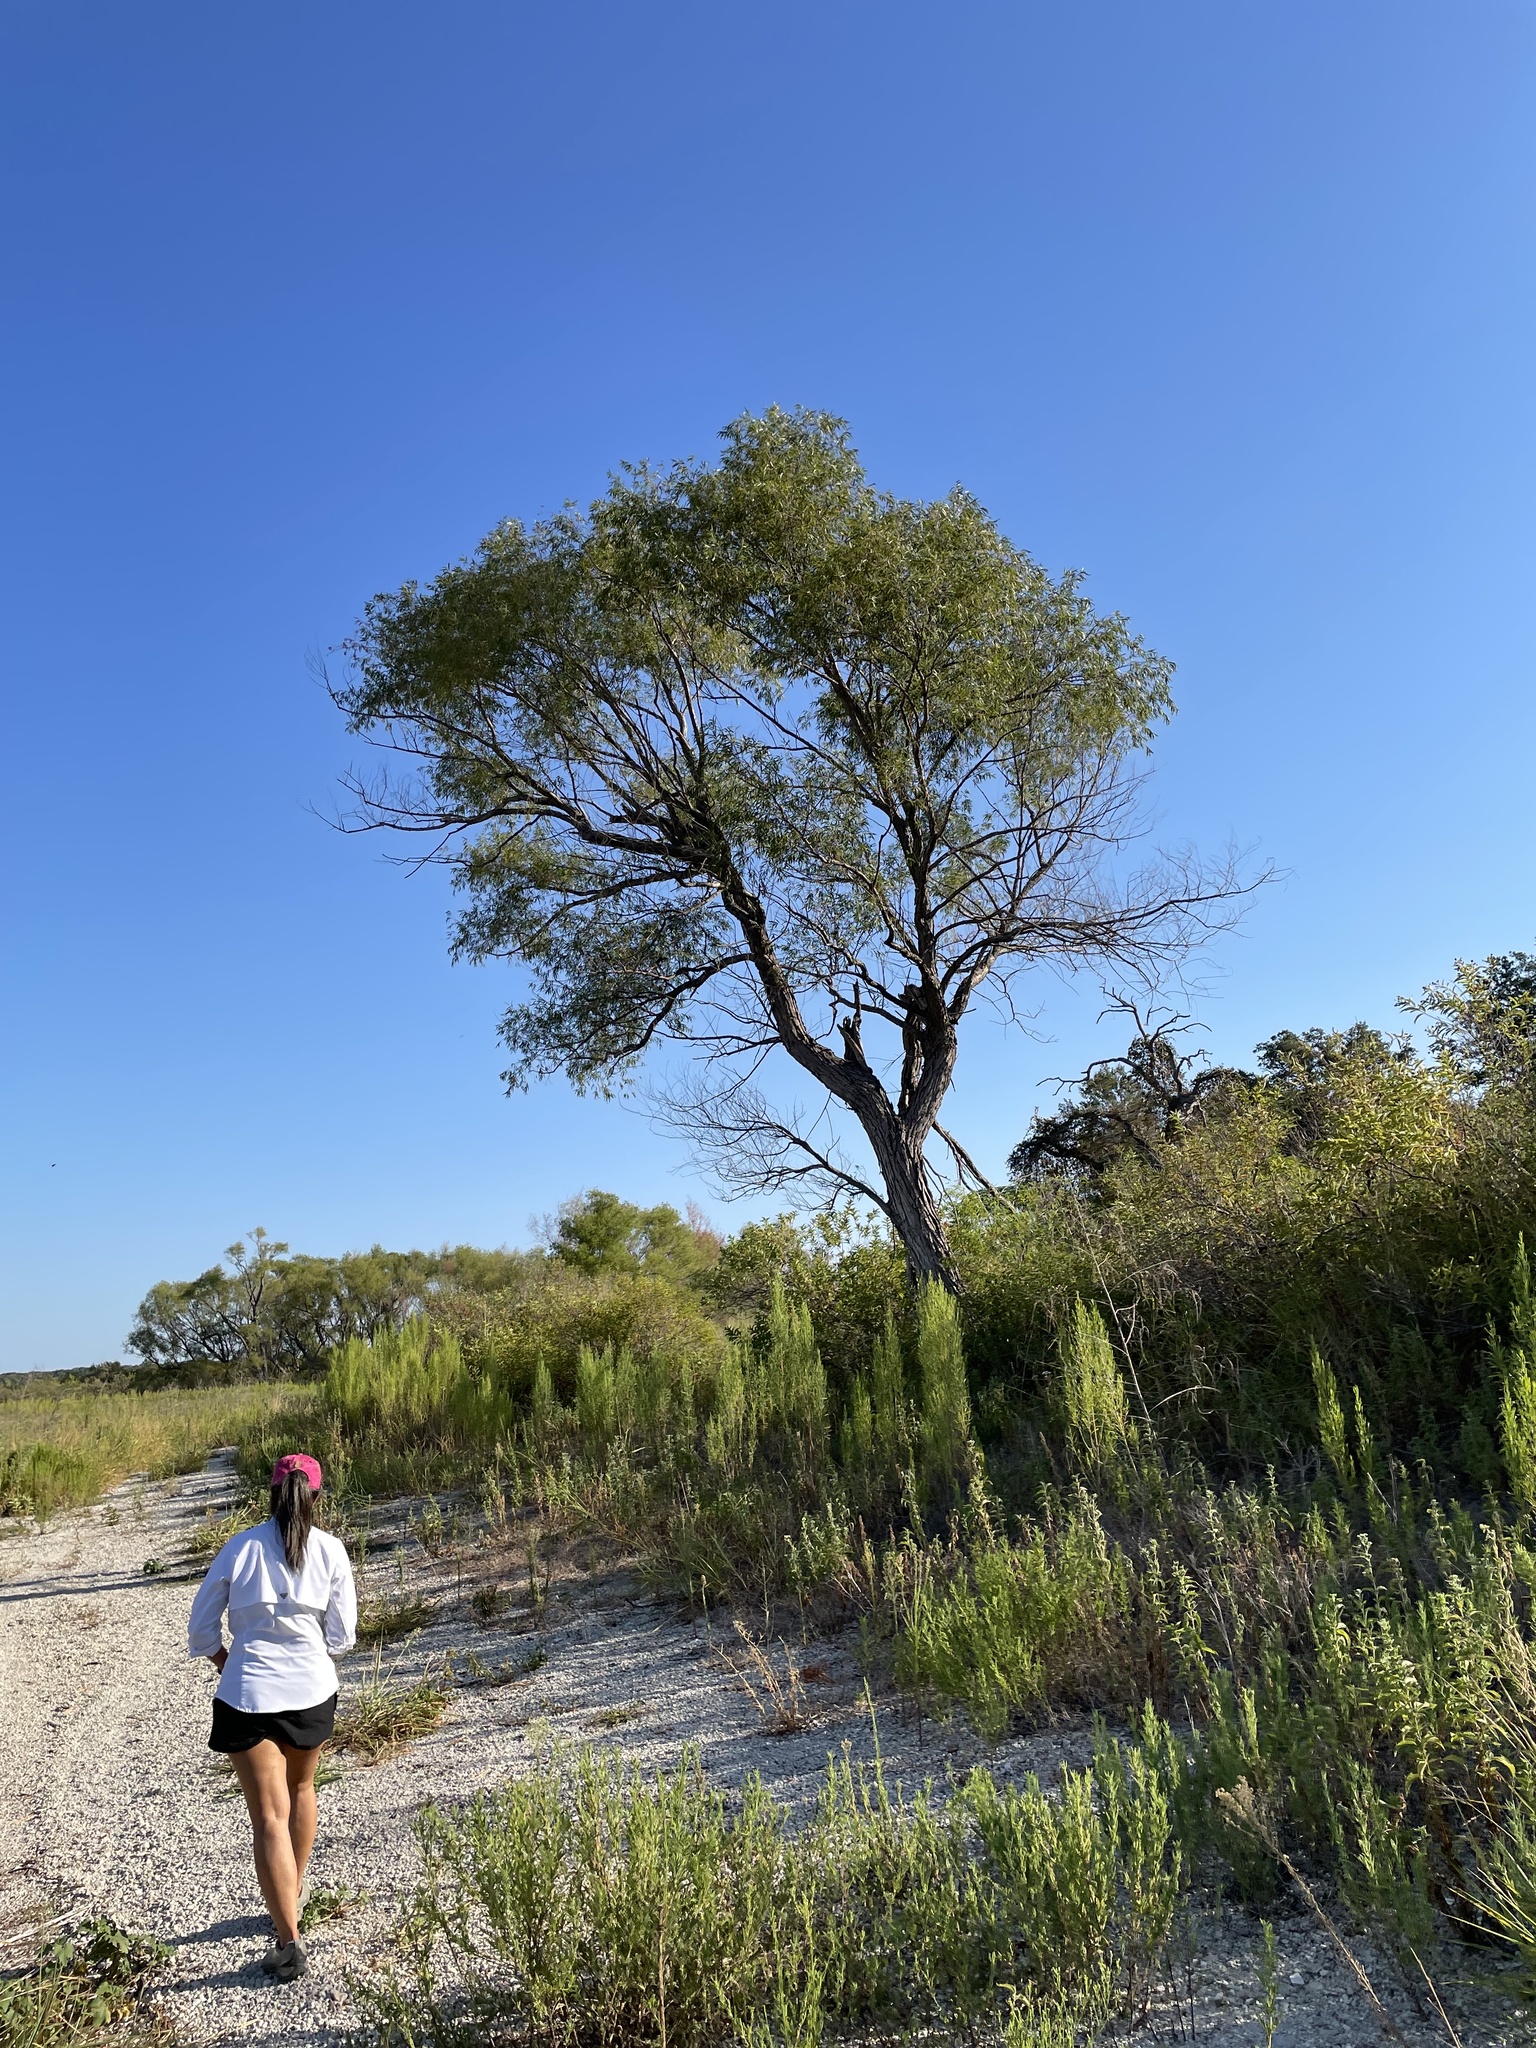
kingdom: Plantae
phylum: Tracheophyta
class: Magnoliopsida
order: Malpighiales
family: Salicaceae
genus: Salix
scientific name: Salix nigra
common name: Black willow
